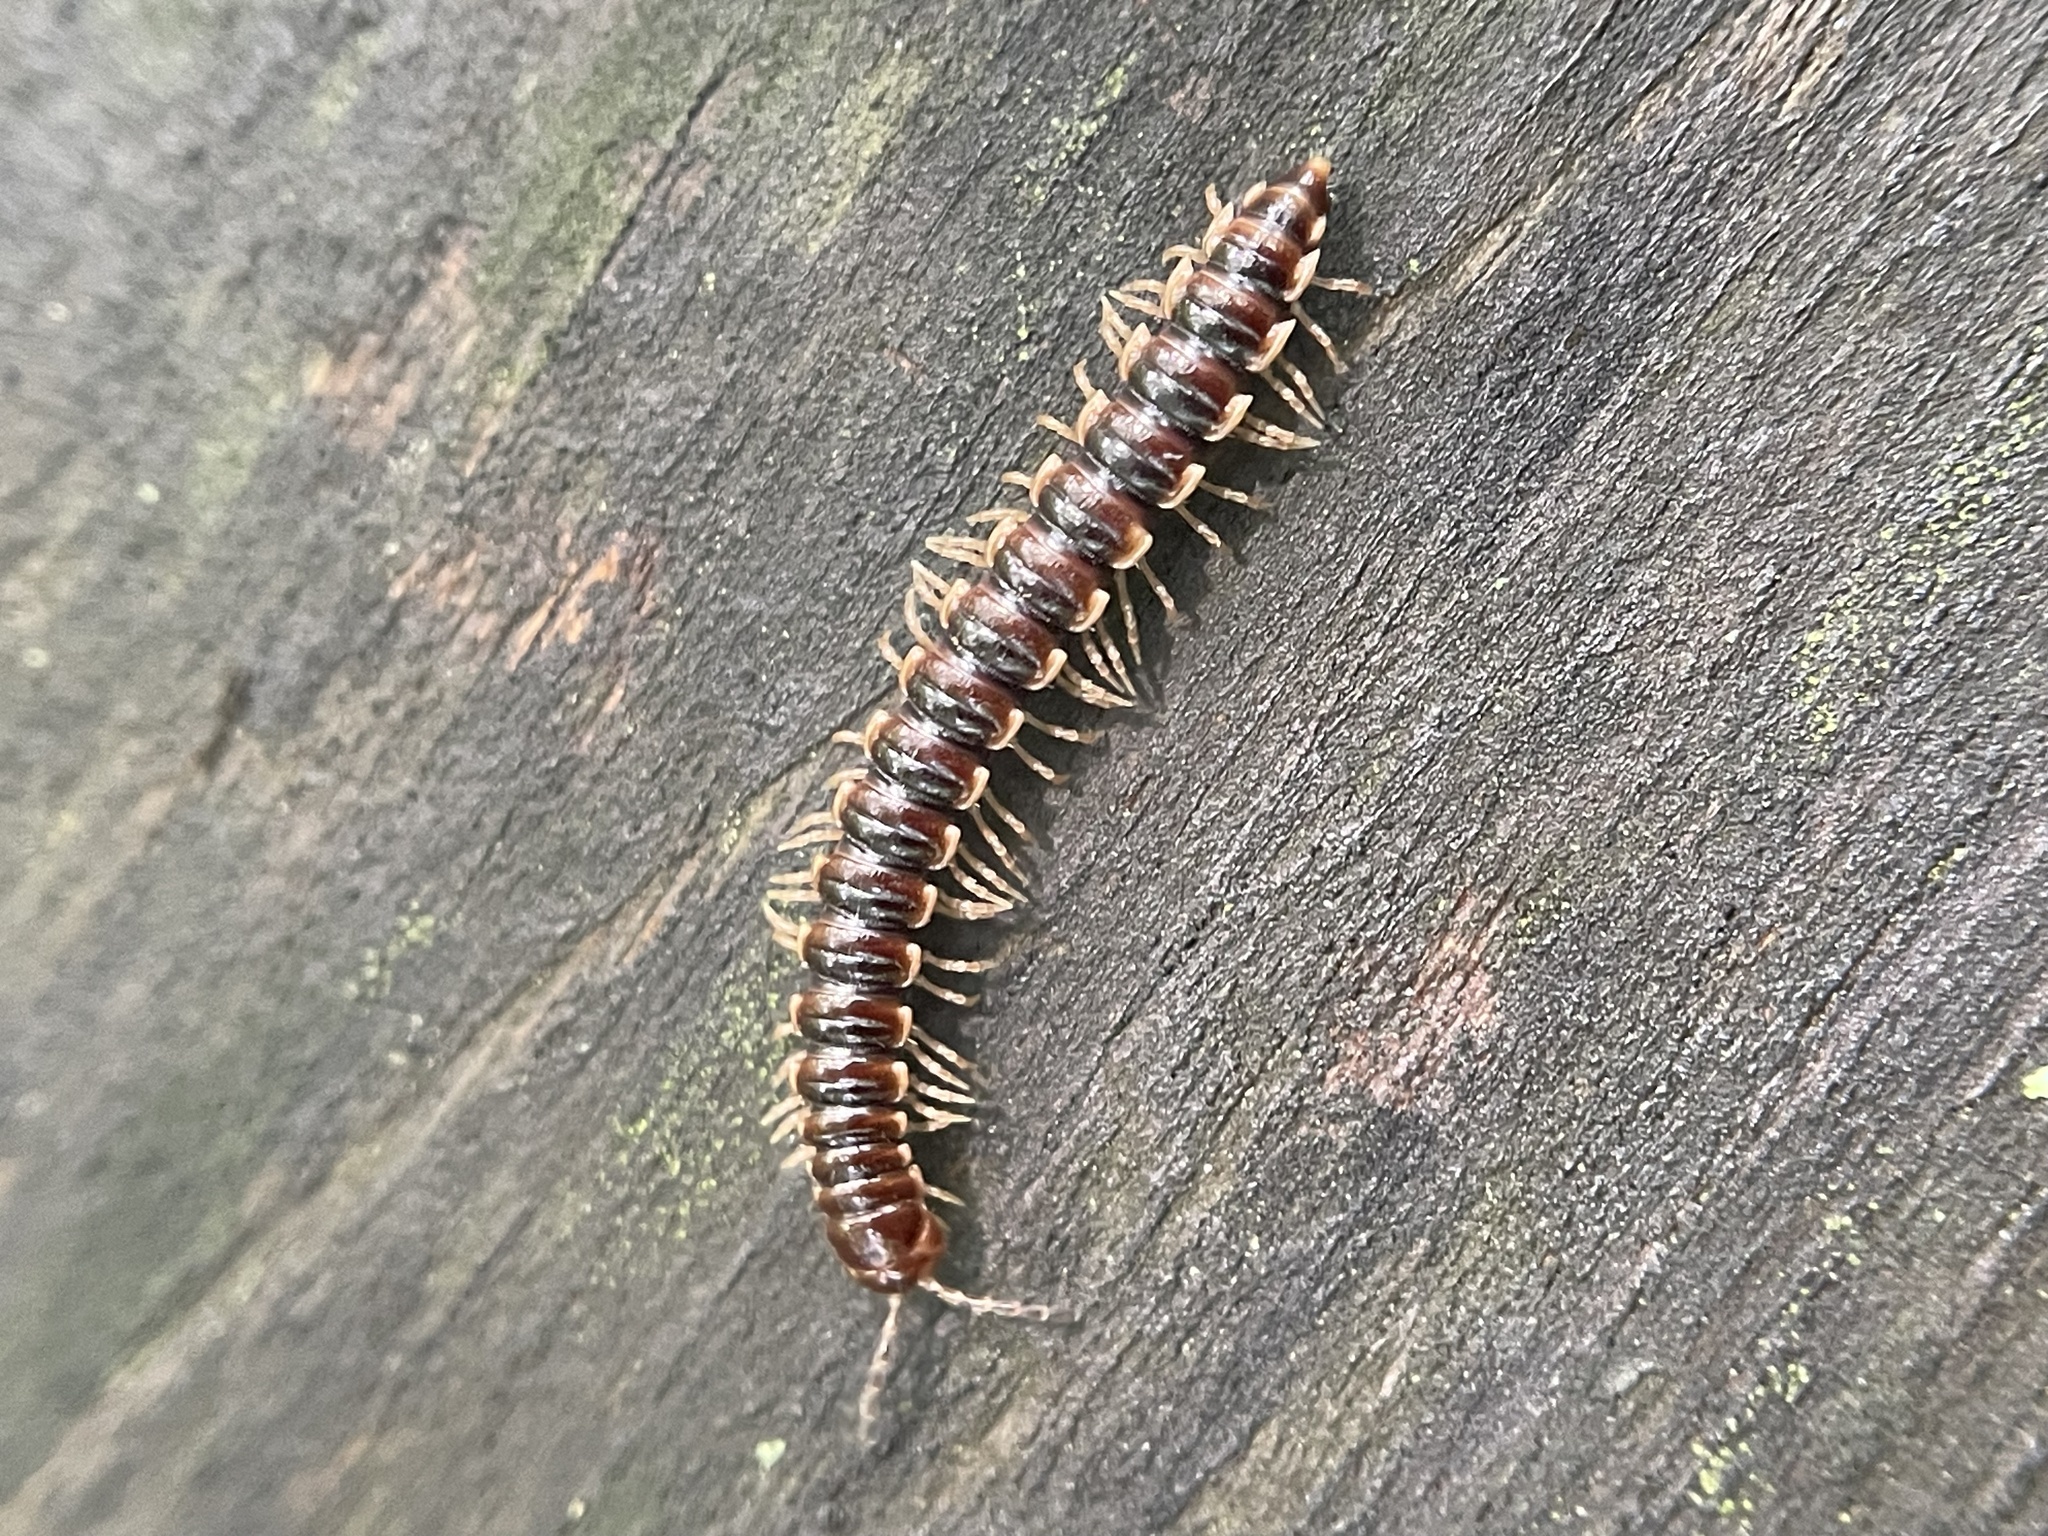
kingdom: Animalia
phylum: Arthropoda
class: Diplopoda
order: Polydesmida
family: Paradoxosomatidae
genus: Oxidus
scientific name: Oxidus gracilis
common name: Greenhouse millipede
